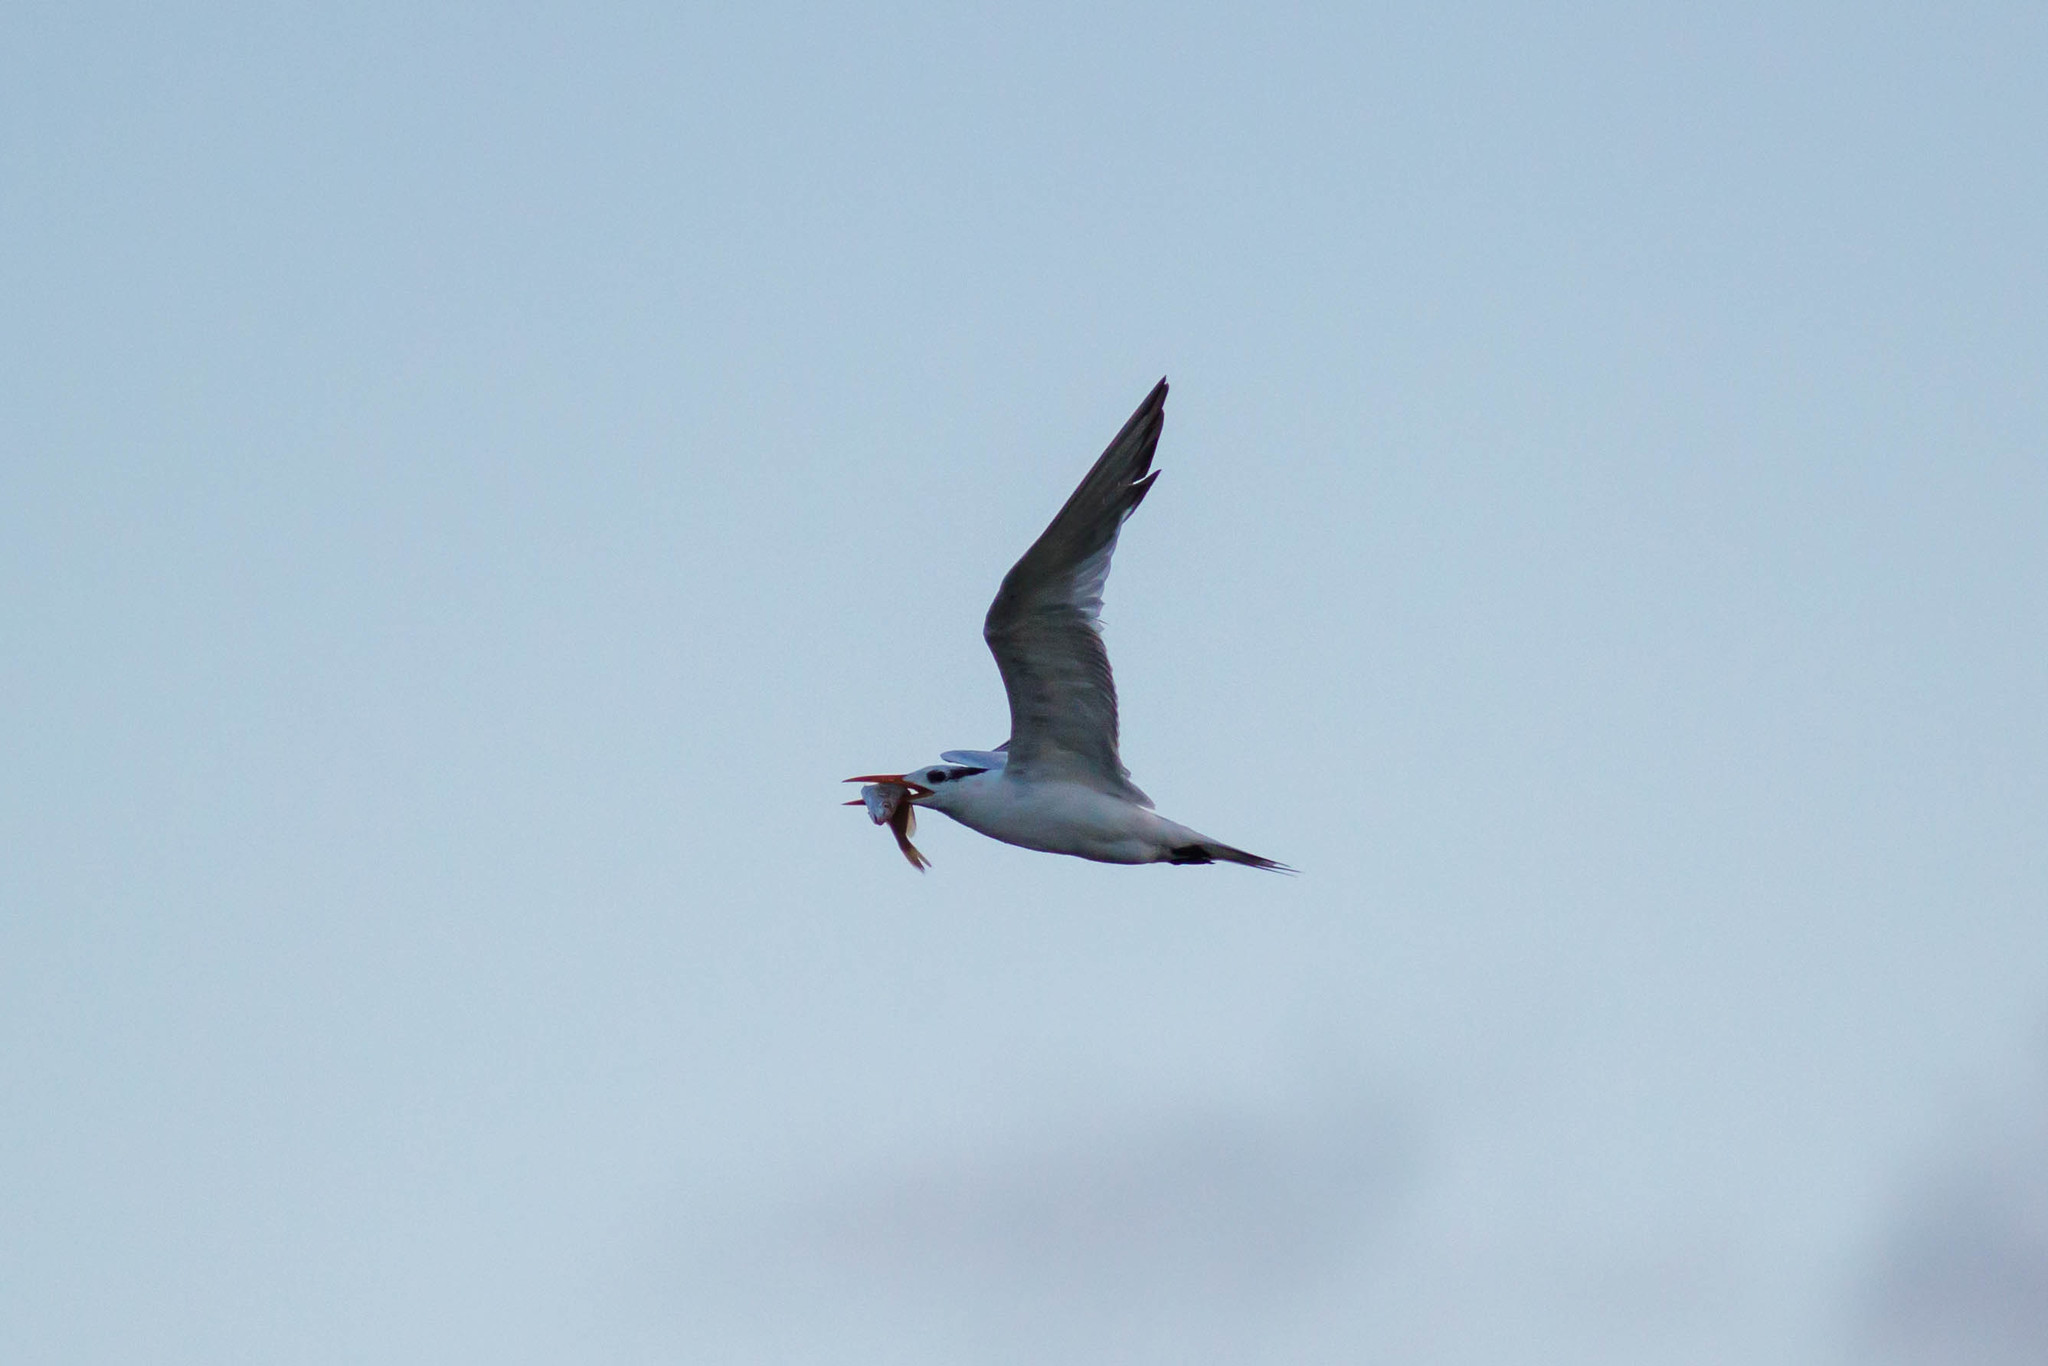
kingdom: Animalia
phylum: Chordata
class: Aves
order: Charadriiformes
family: Laridae
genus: Thalasseus
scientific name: Thalasseus maximus
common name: Royal tern
